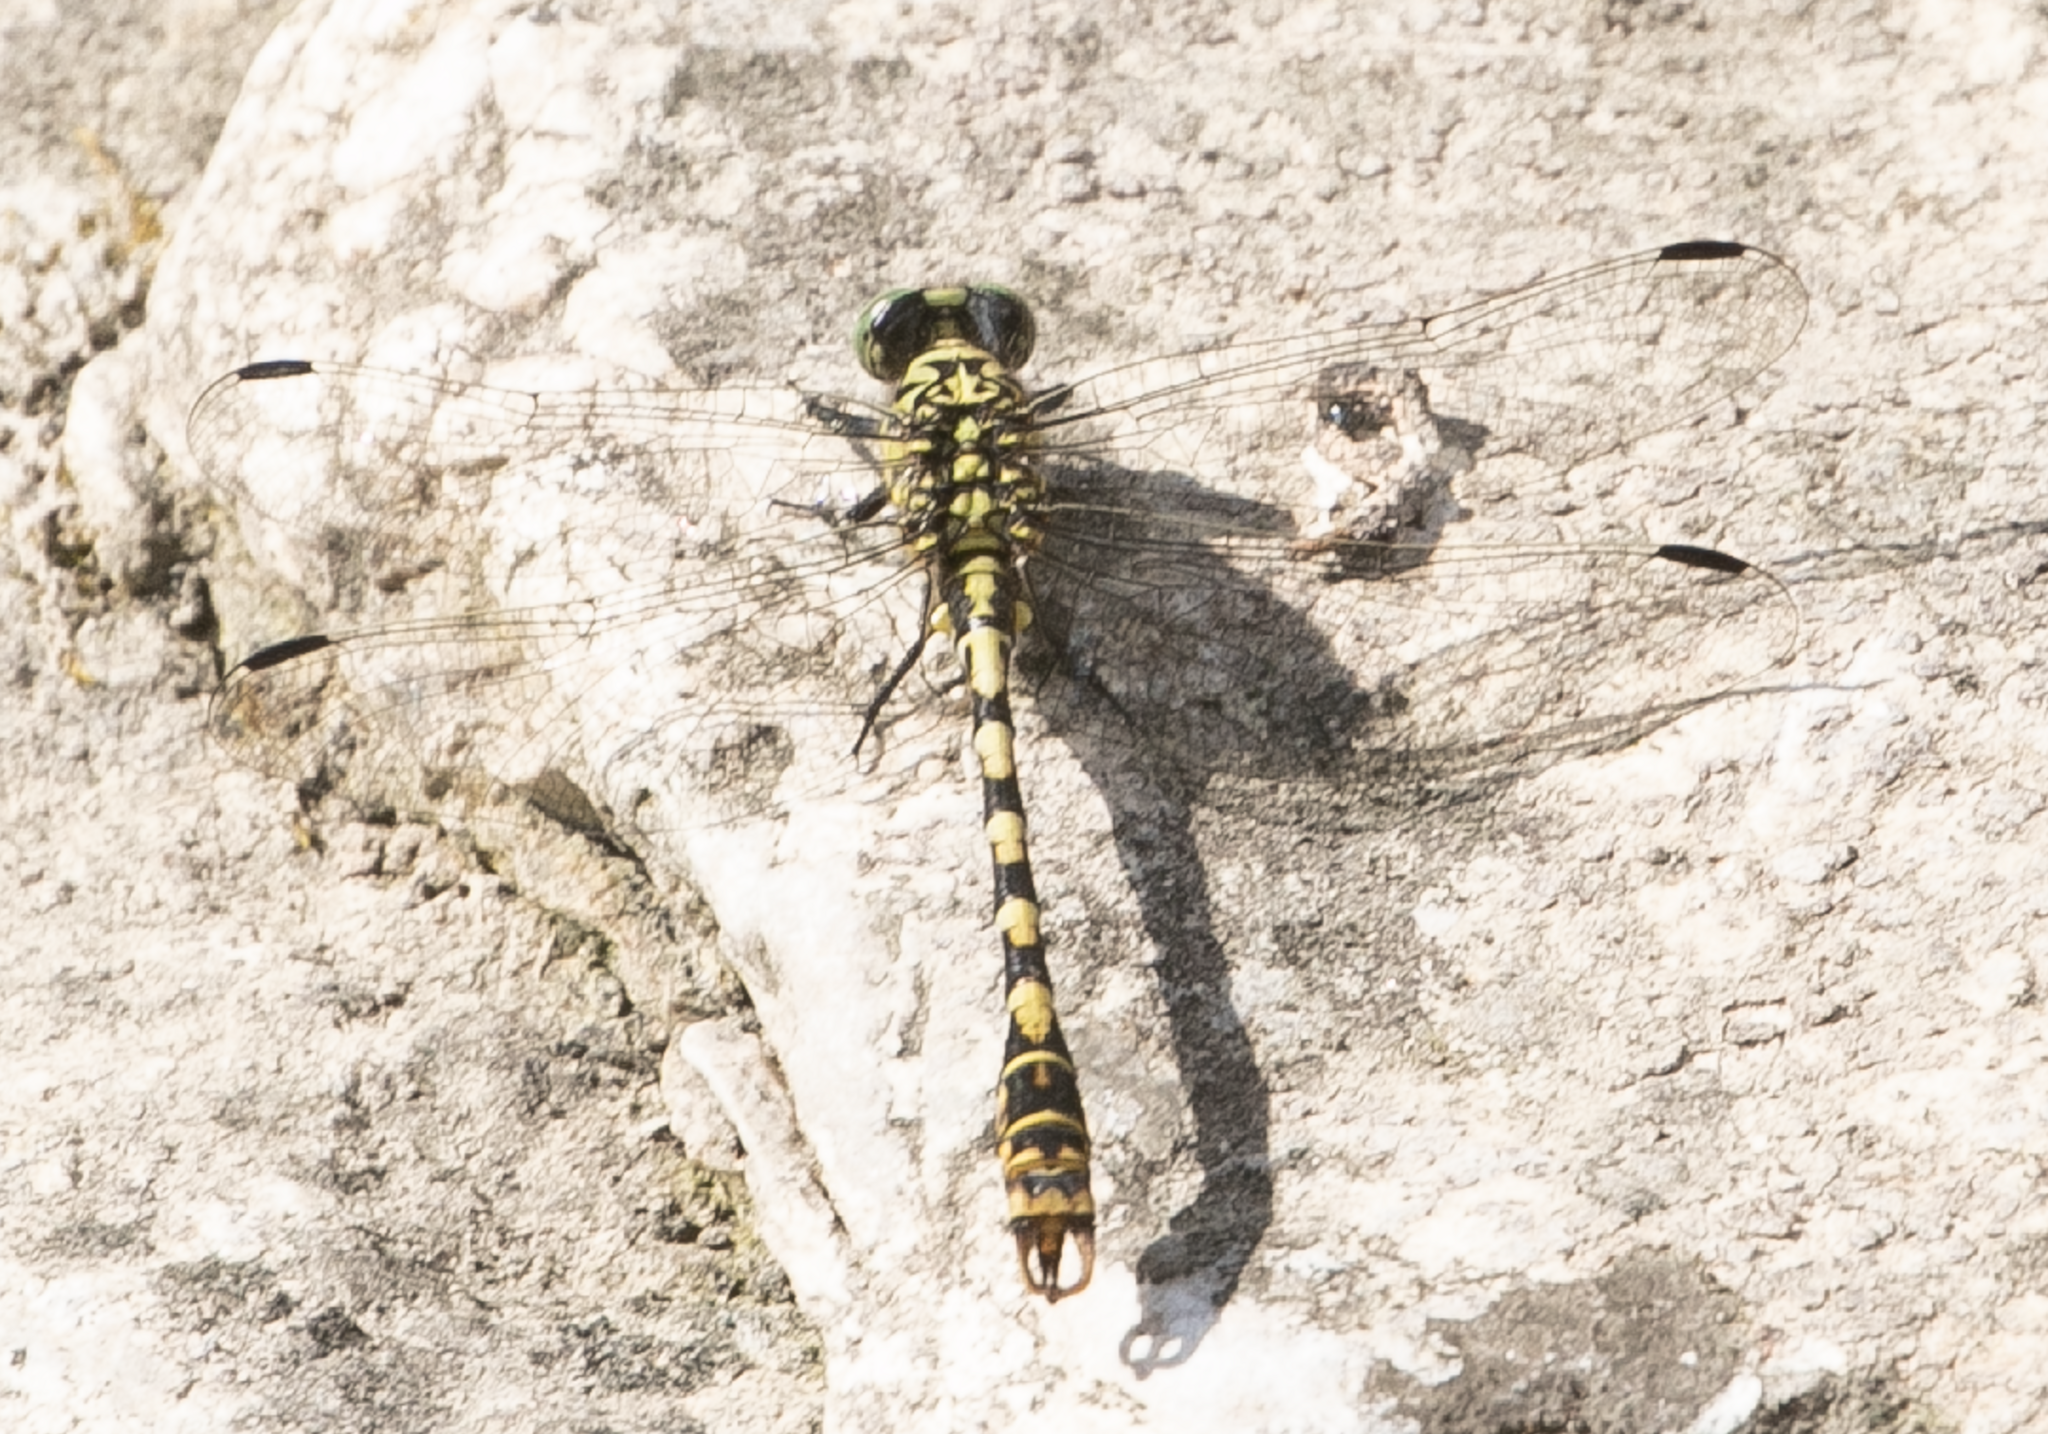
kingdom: Animalia
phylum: Arthropoda
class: Insecta
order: Odonata
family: Gomphidae
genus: Onychogomphus
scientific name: Onychogomphus forcipatus
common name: Small pincertail
